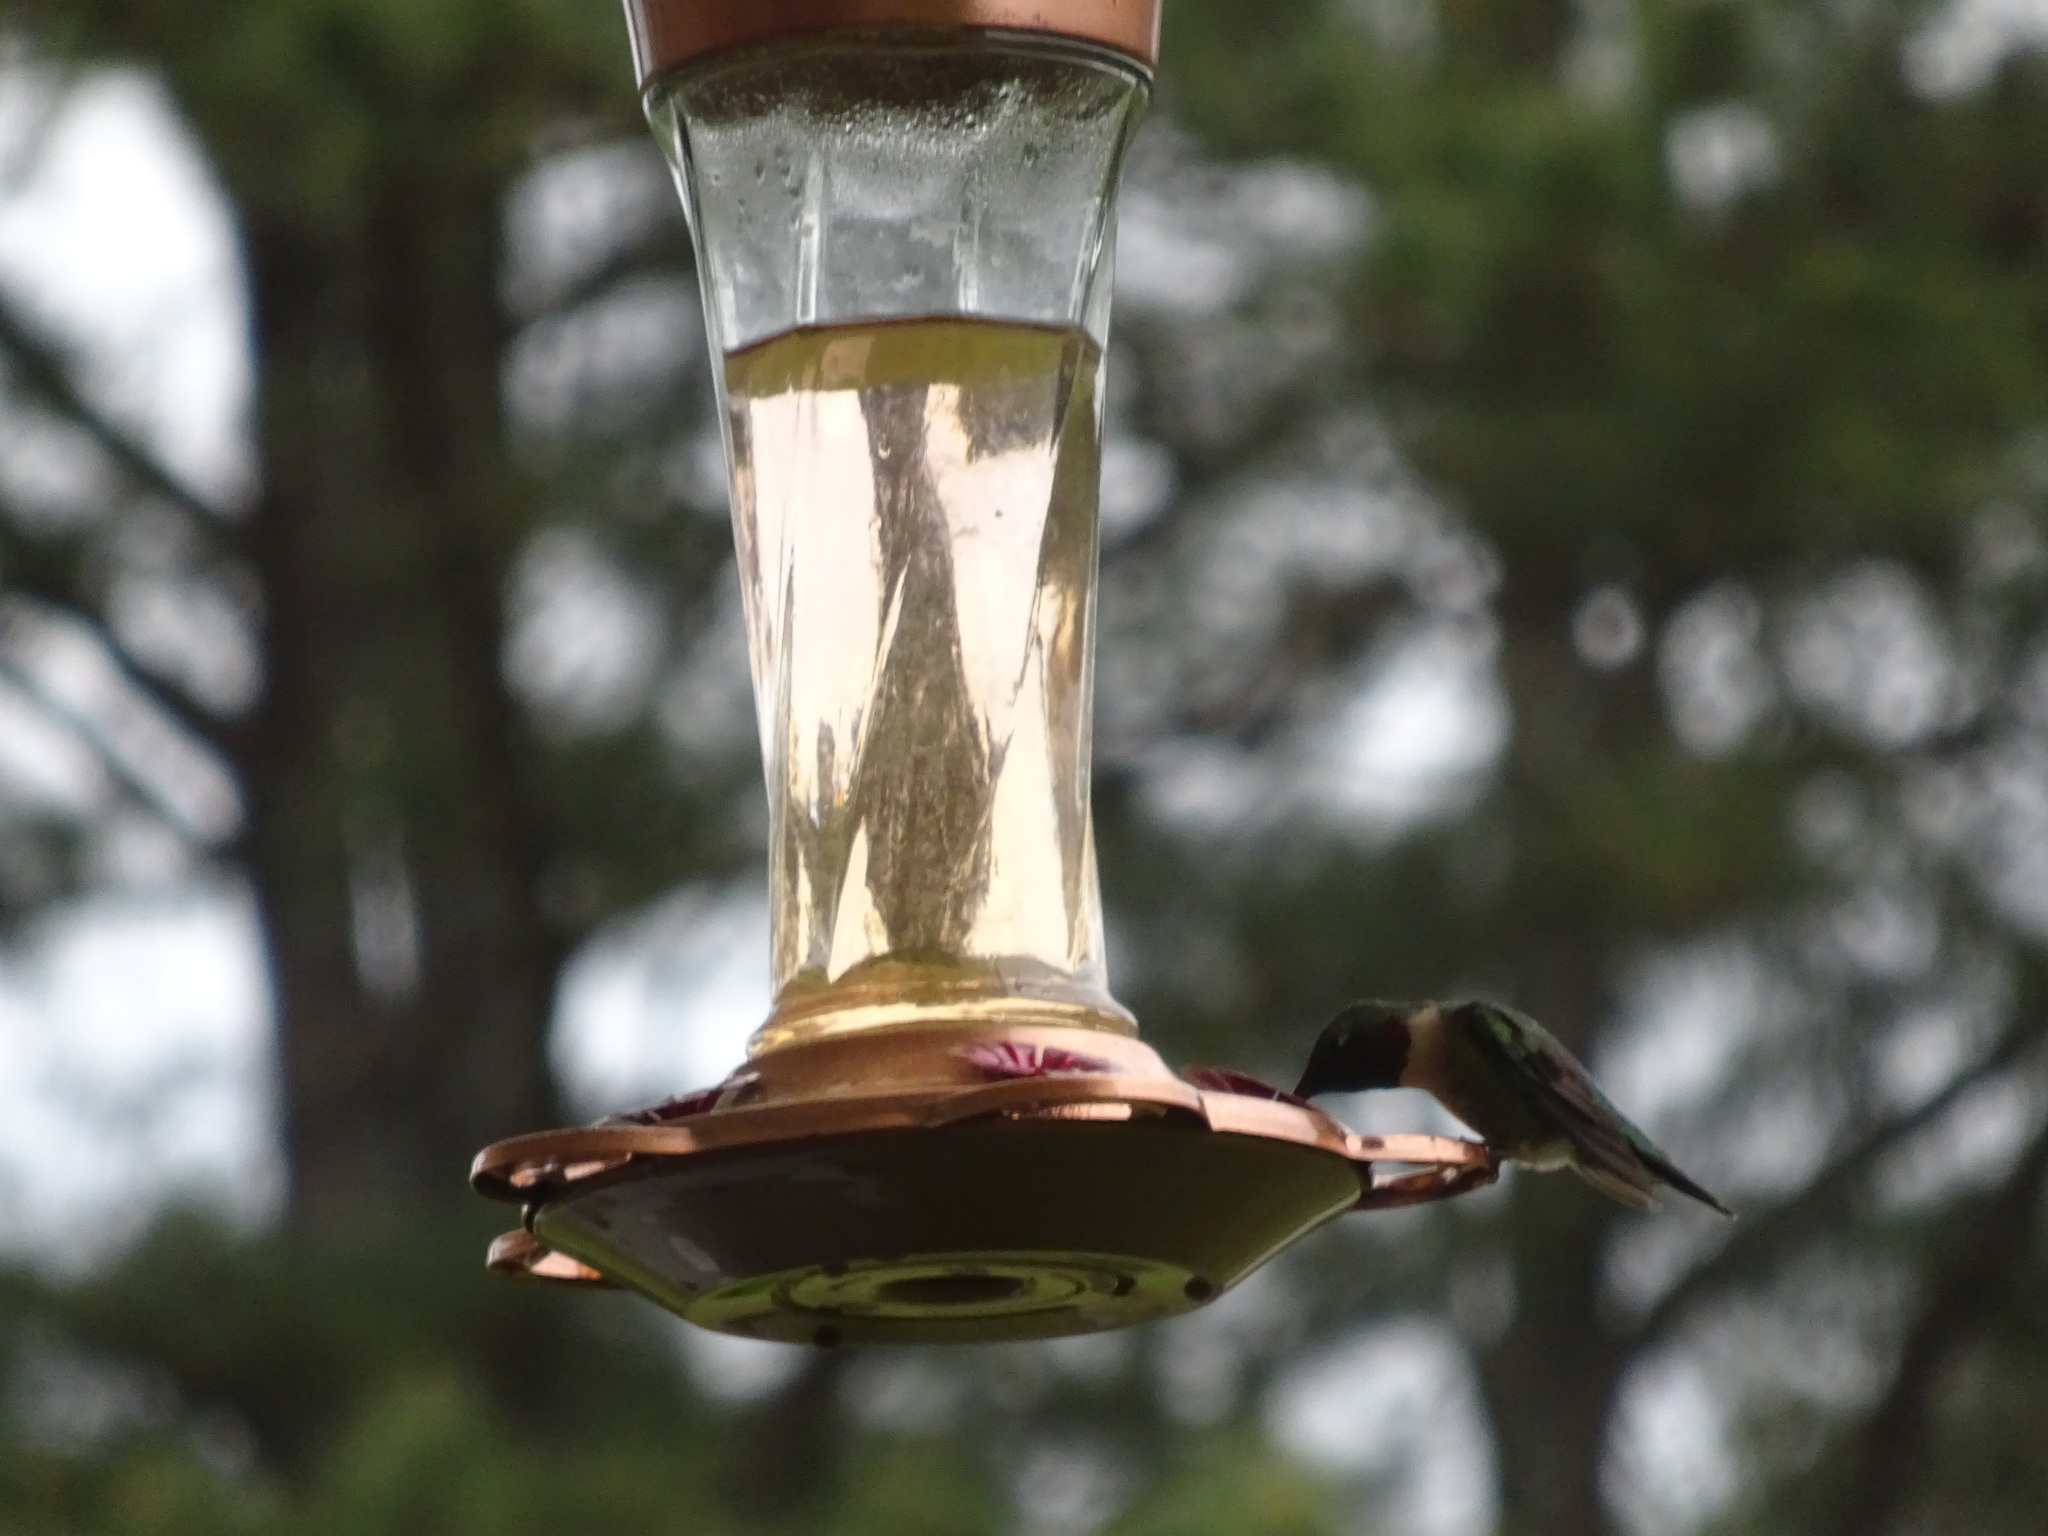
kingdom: Animalia
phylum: Chordata
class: Aves
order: Apodiformes
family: Trochilidae
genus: Archilochus
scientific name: Archilochus colubris
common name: Ruby-throated hummingbird
